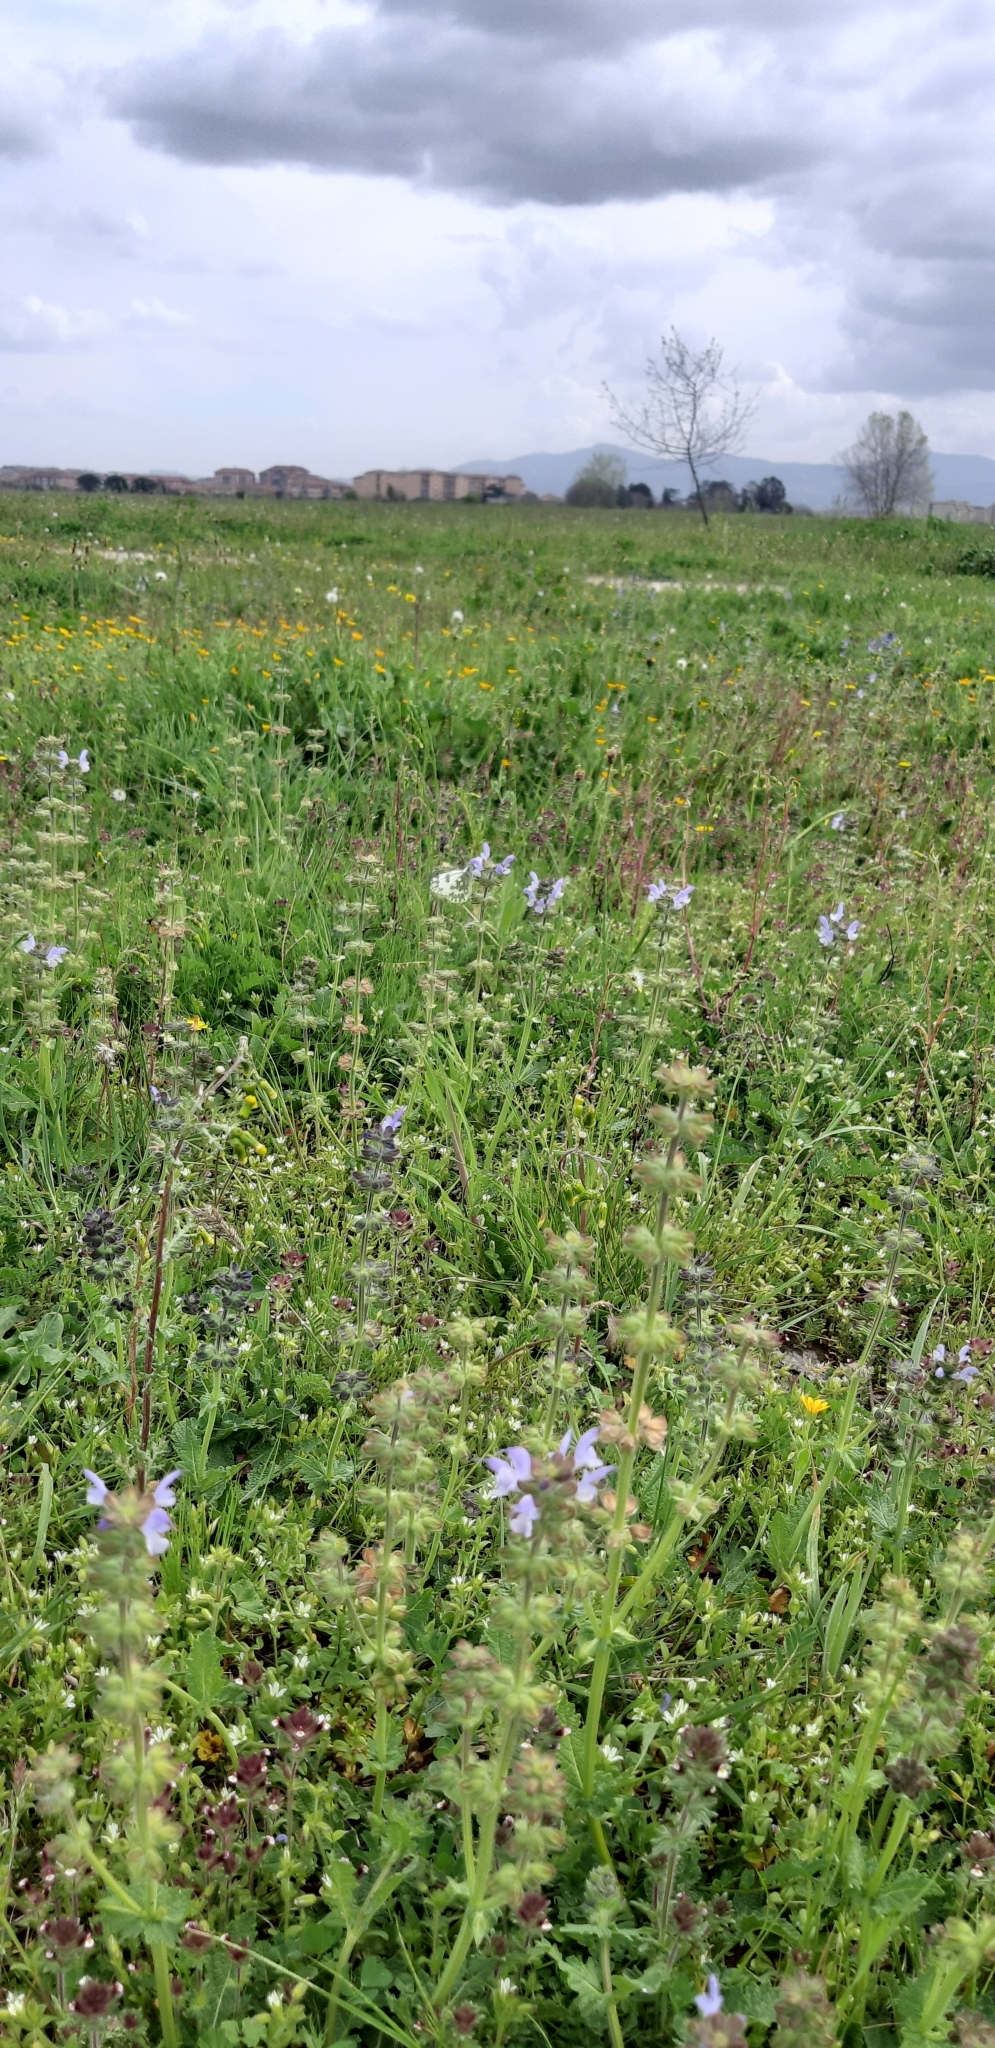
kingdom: Animalia
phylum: Arthropoda
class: Insecta
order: Lepidoptera
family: Pieridae
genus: Pontia
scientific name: Pontia edusa
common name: Eastern bath white
